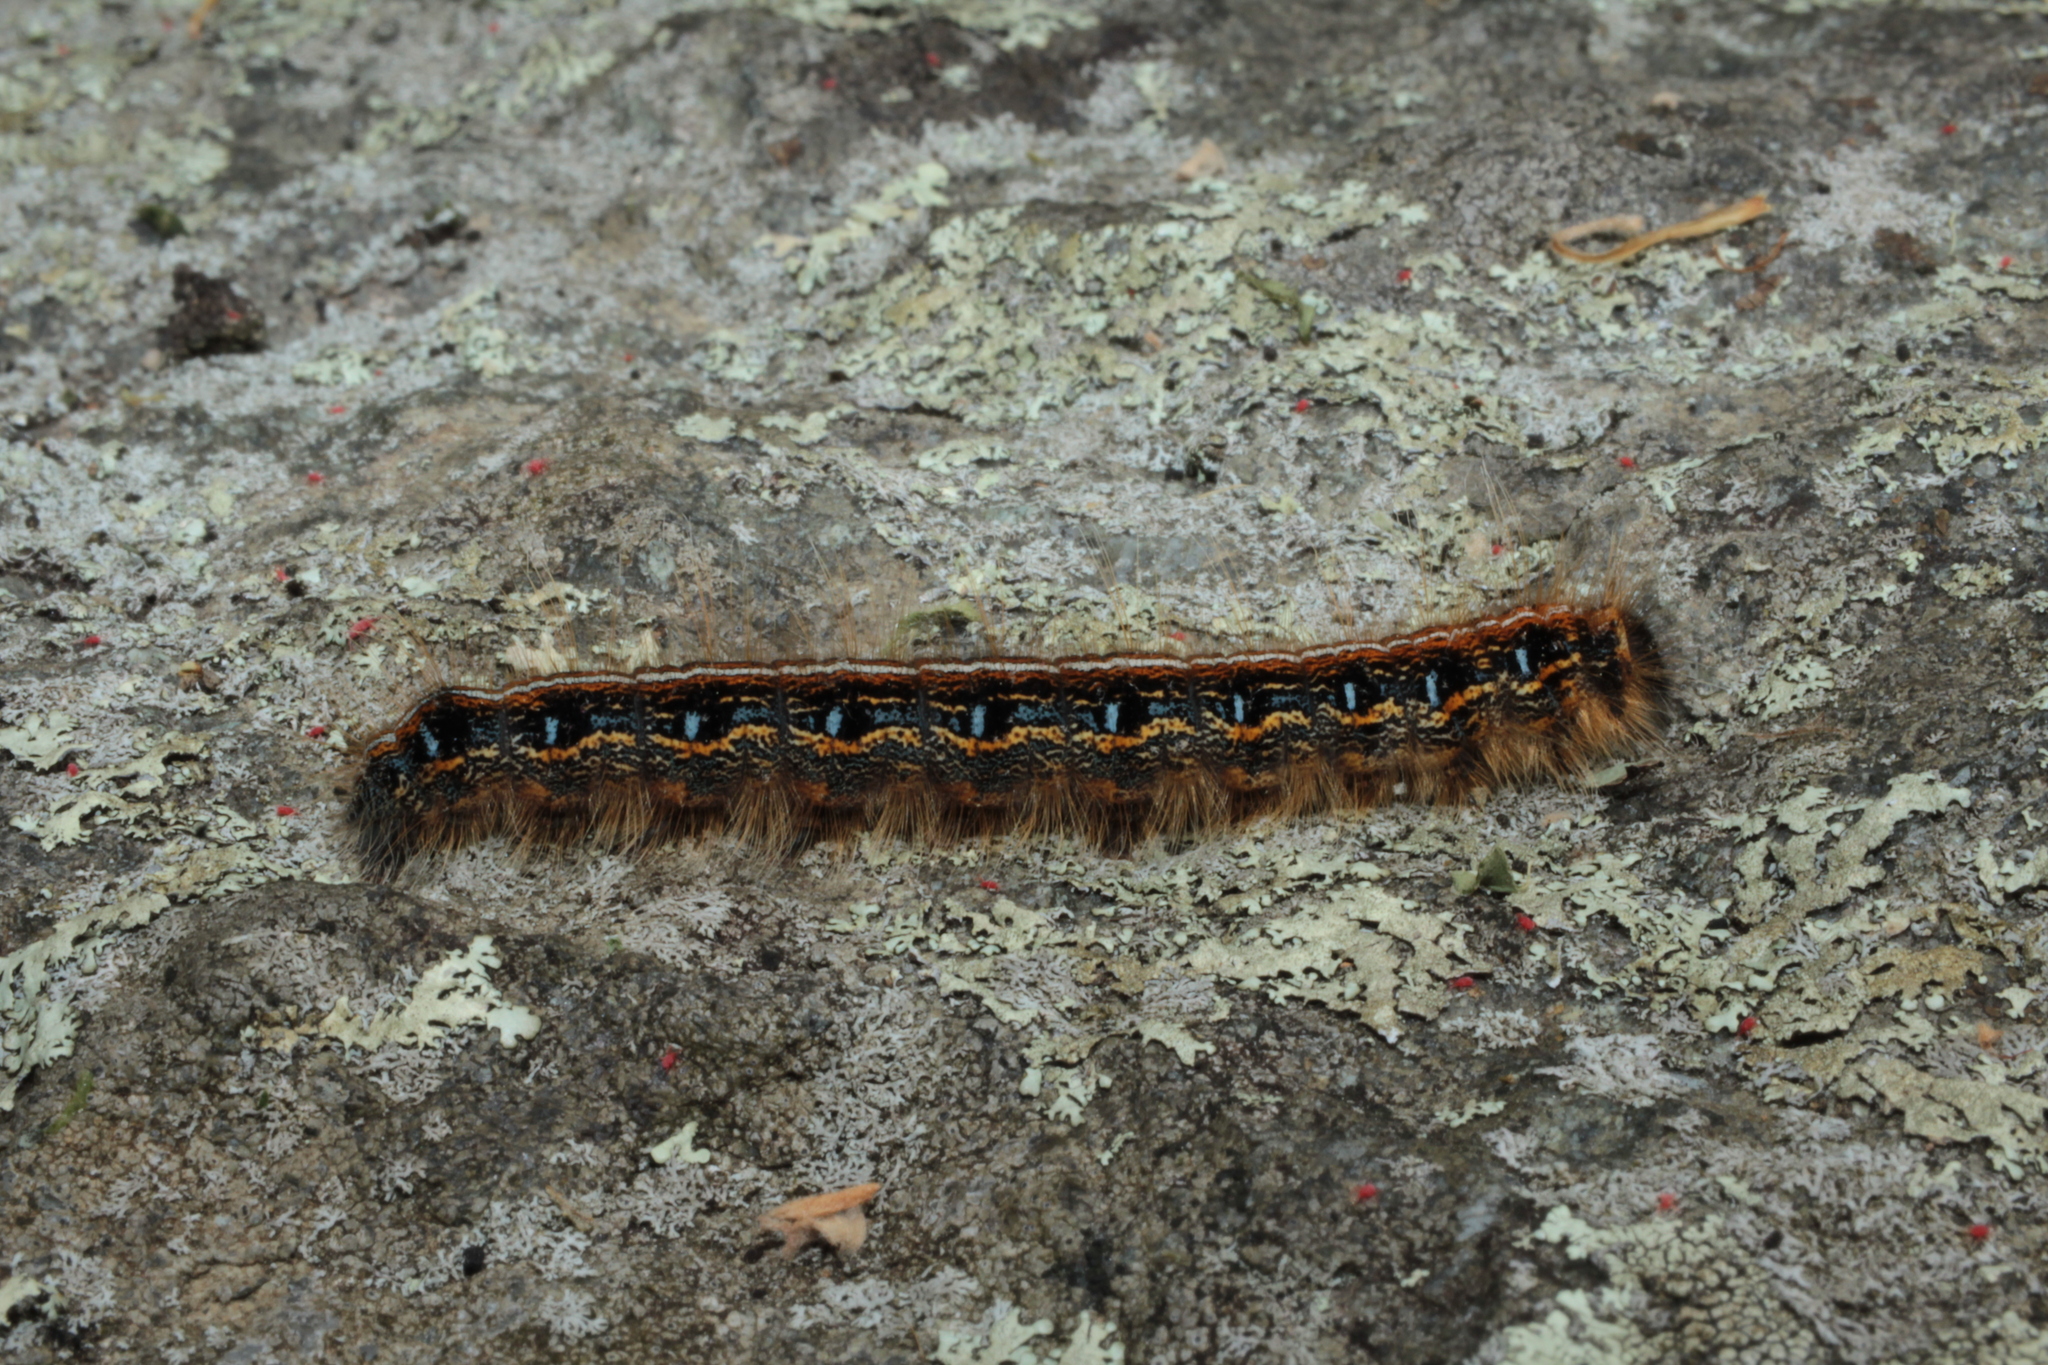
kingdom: Animalia
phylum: Arthropoda
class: Insecta
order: Lepidoptera
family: Lasiocampidae
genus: Malacosoma
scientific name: Malacosoma americana
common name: Eastern tent caterpillar moth
